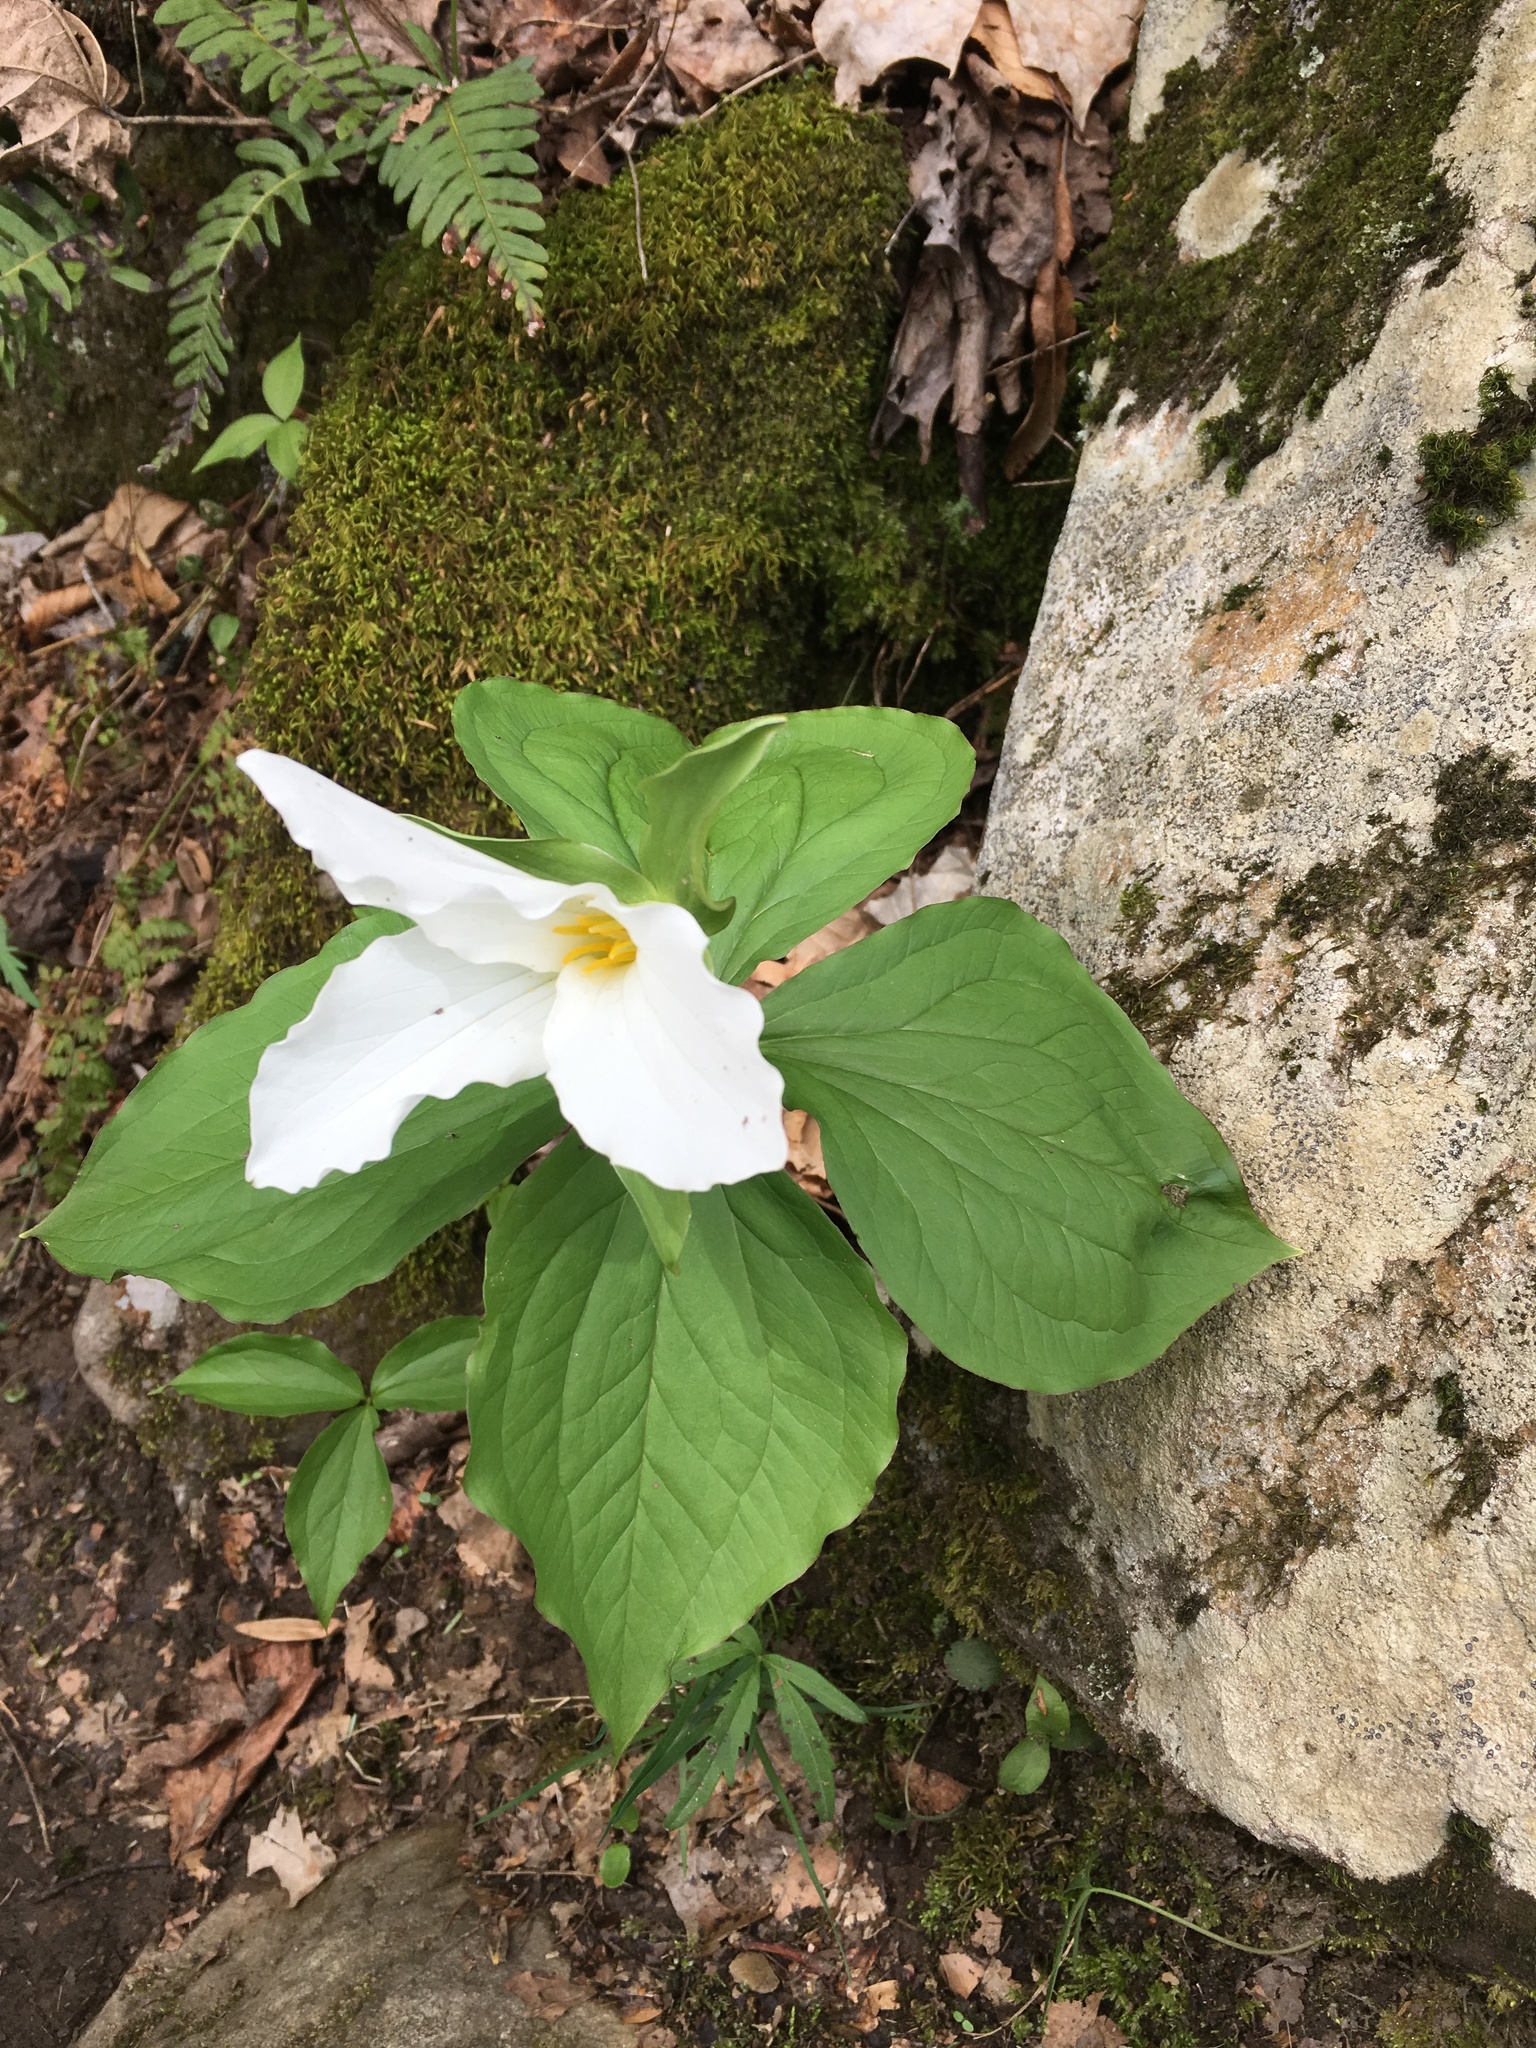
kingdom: Plantae
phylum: Tracheophyta
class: Liliopsida
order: Liliales
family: Melanthiaceae
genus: Trillium
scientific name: Trillium grandiflorum
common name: Great white trillium
